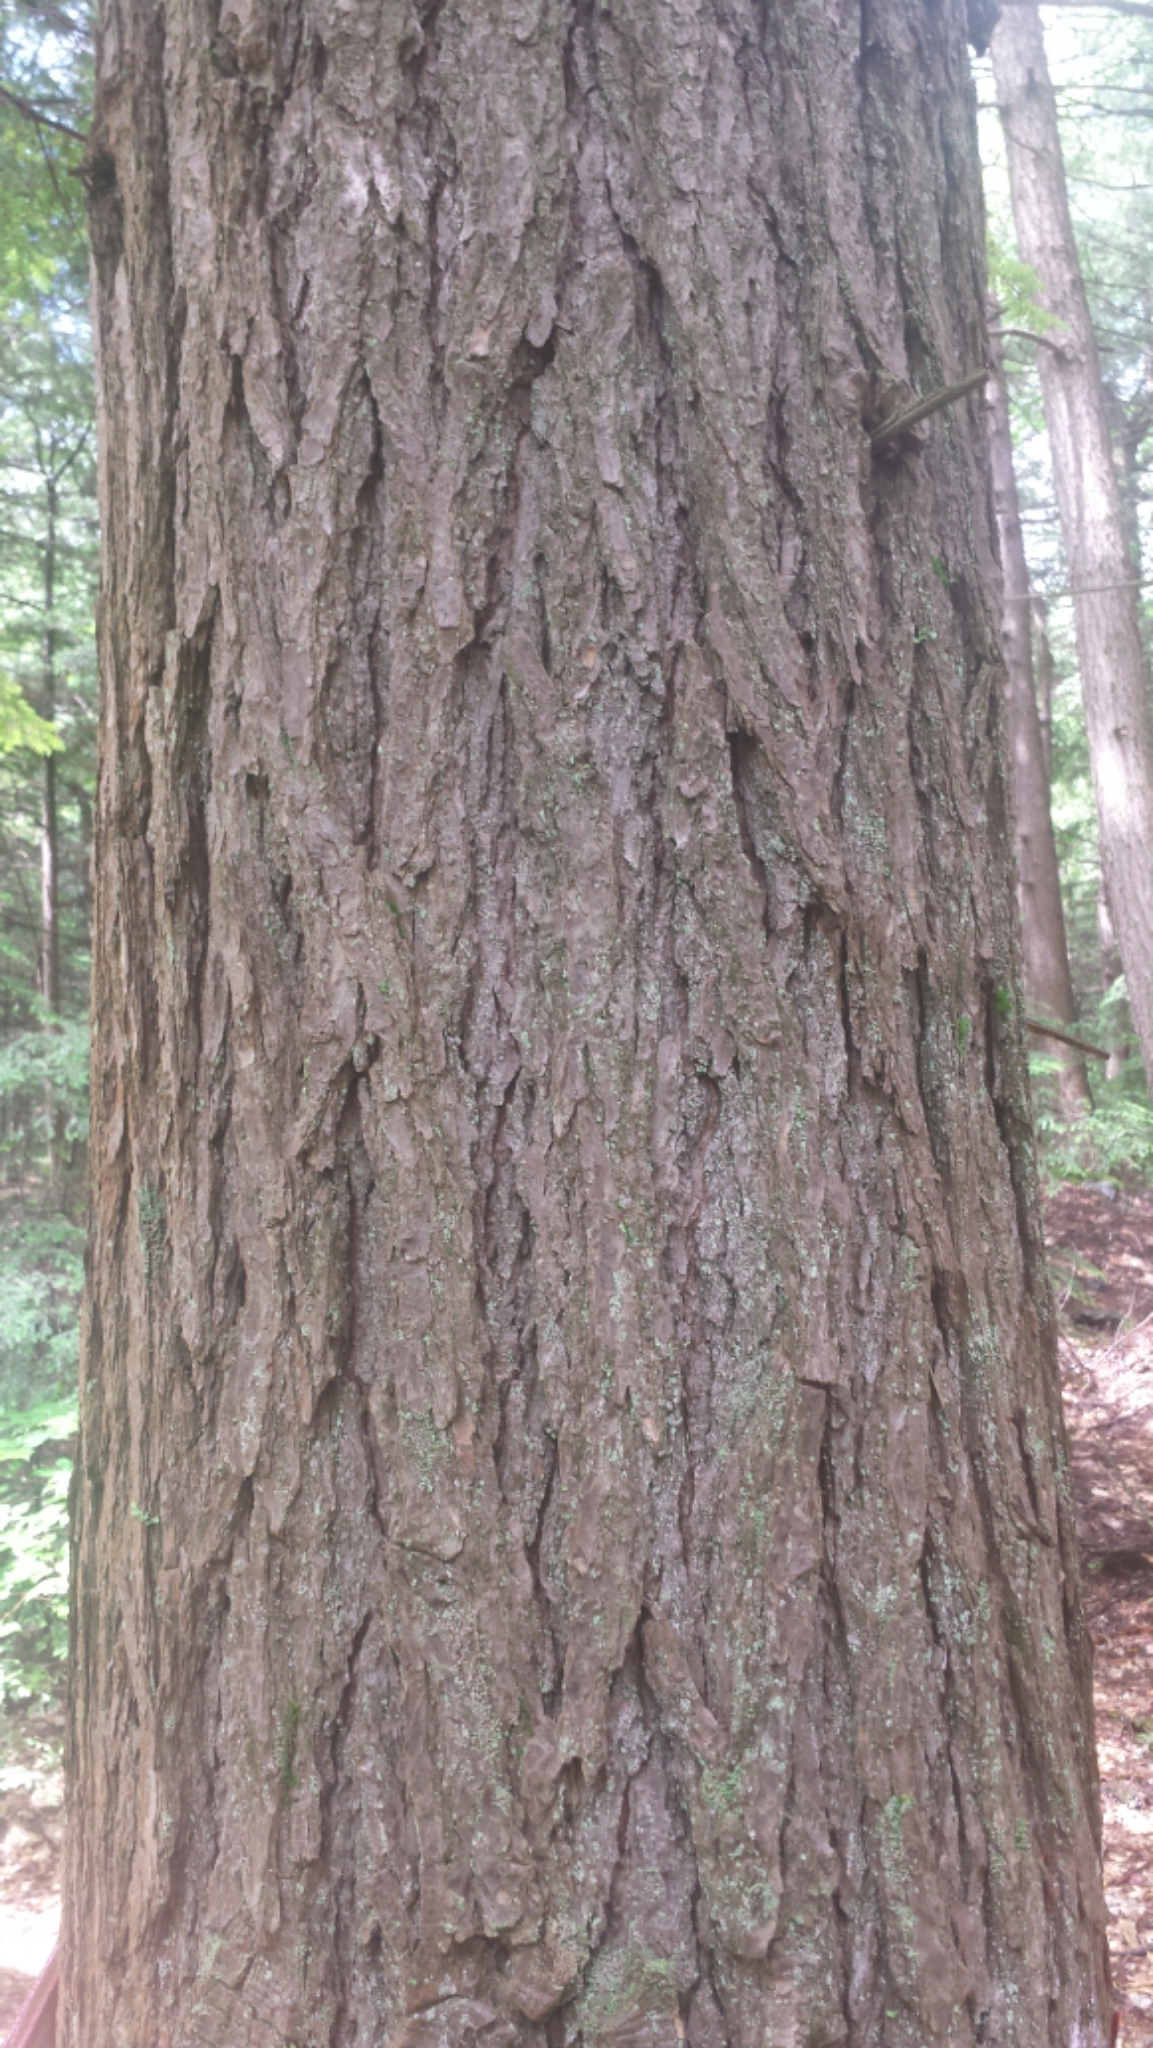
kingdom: Plantae
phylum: Tracheophyta
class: Pinopsida
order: Pinales
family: Pinaceae
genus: Tsuga
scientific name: Tsuga canadensis
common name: Eastern hemlock
